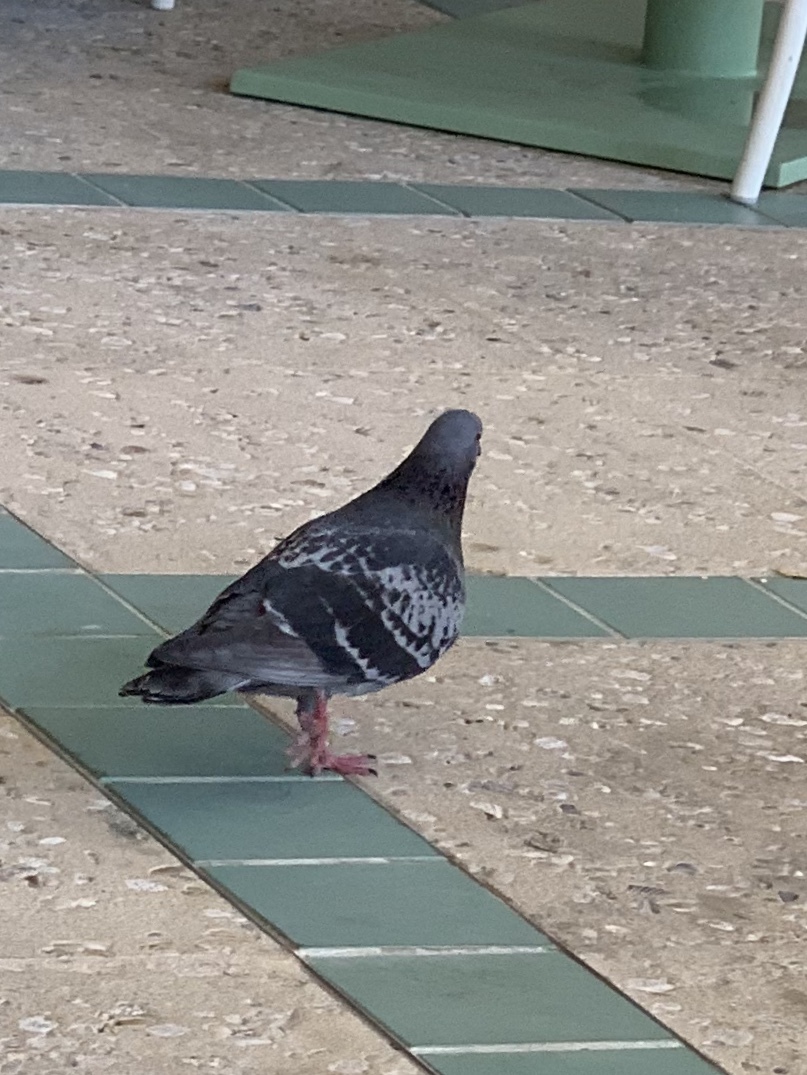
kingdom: Animalia
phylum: Chordata
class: Aves
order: Columbiformes
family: Columbidae
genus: Columba
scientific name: Columba livia
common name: Rock pigeon
